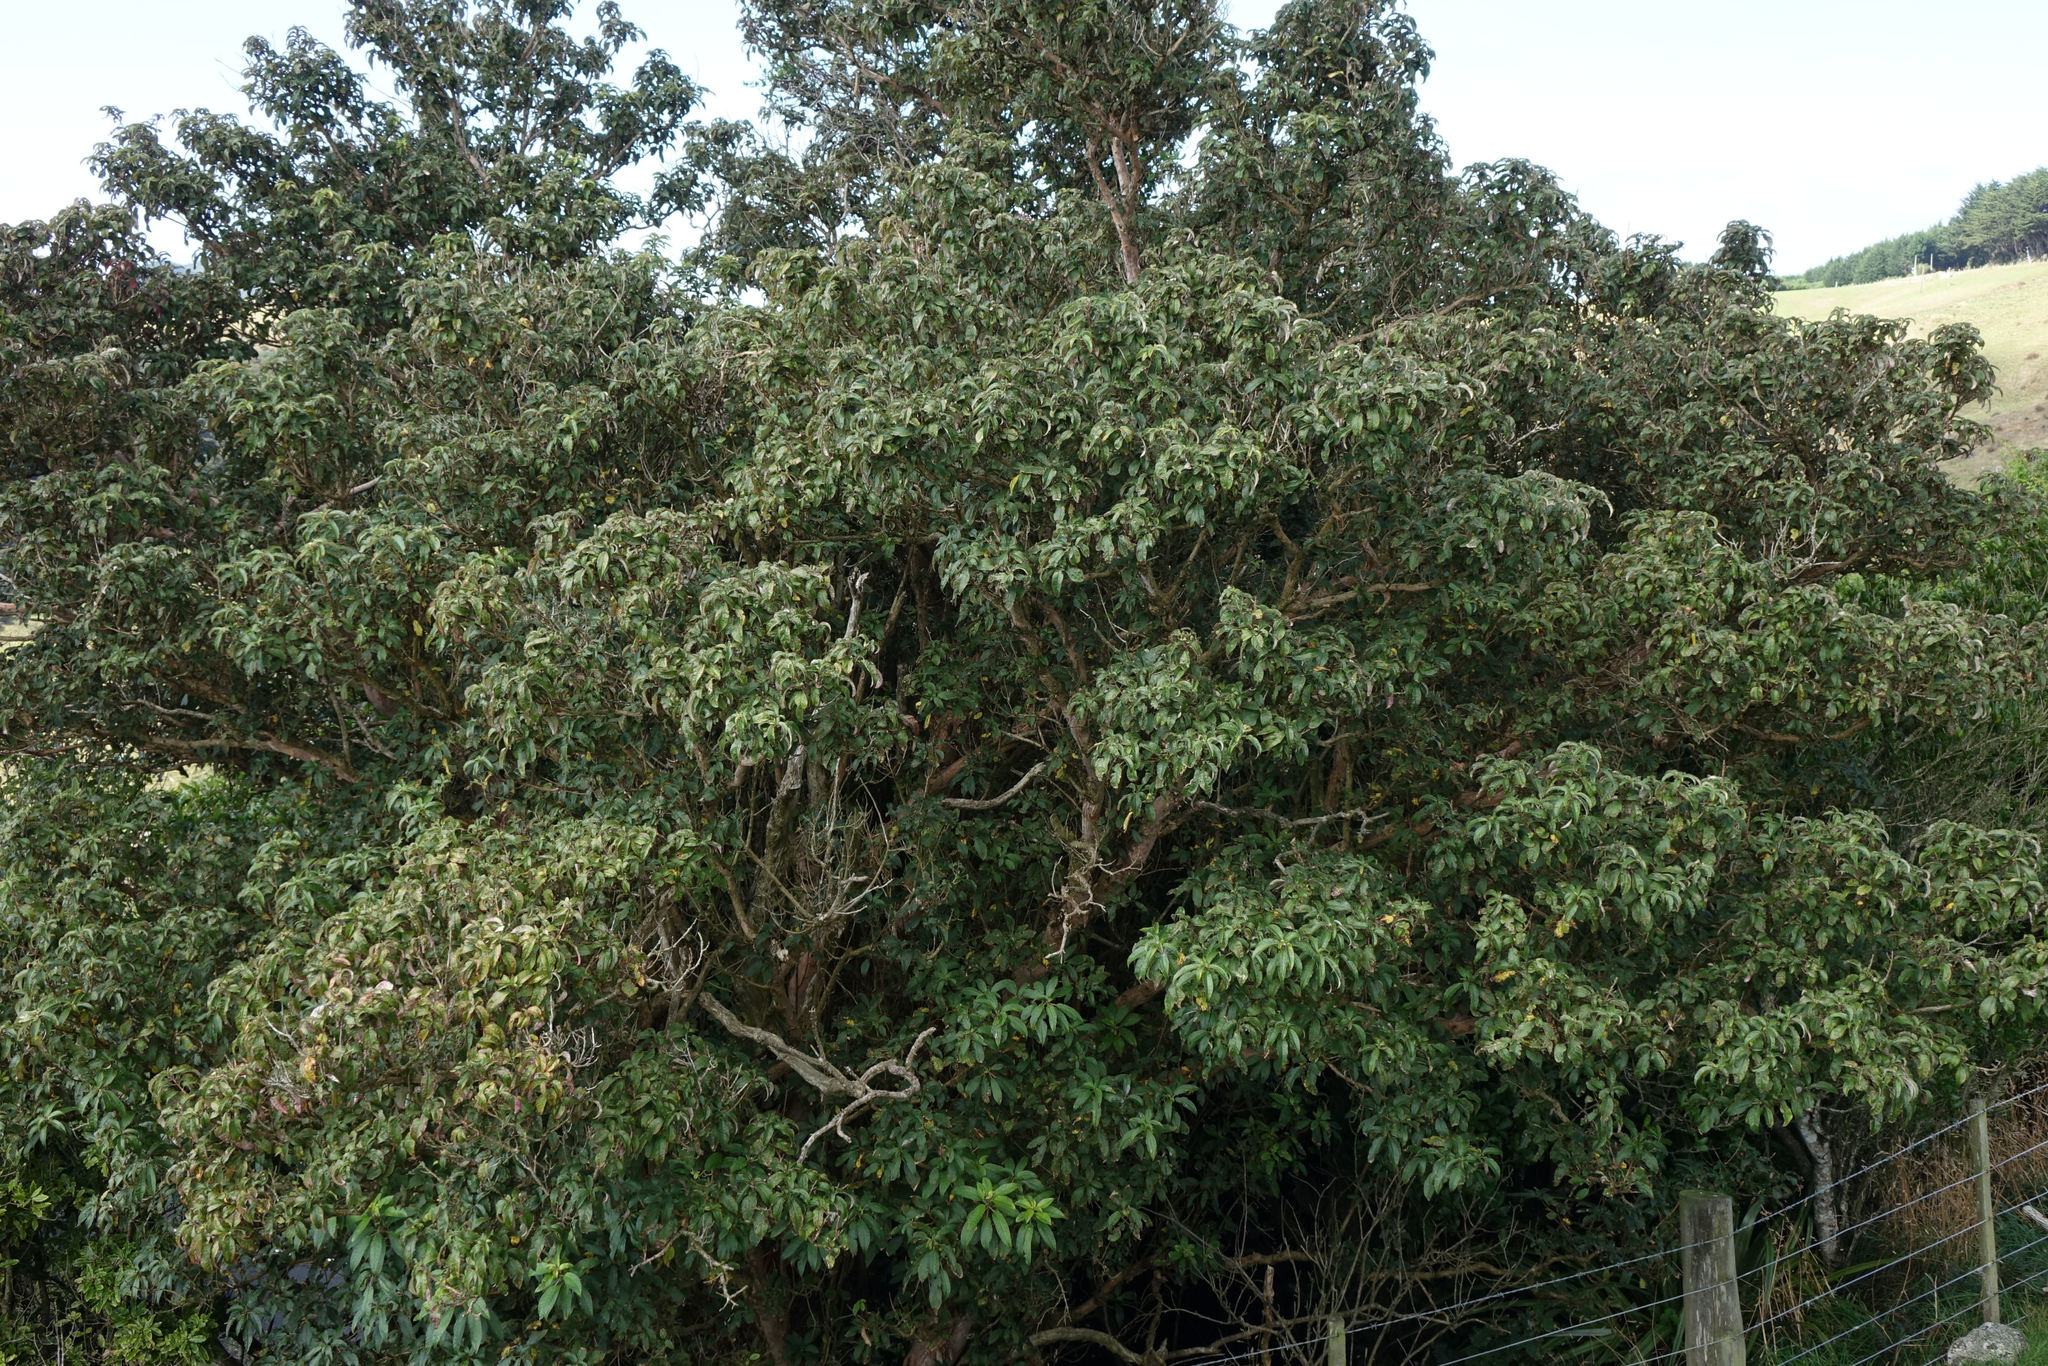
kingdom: Plantae
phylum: Tracheophyta
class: Magnoliopsida
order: Myrtales
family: Onagraceae
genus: Fuchsia
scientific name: Fuchsia excorticata
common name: Tree fuchsia
